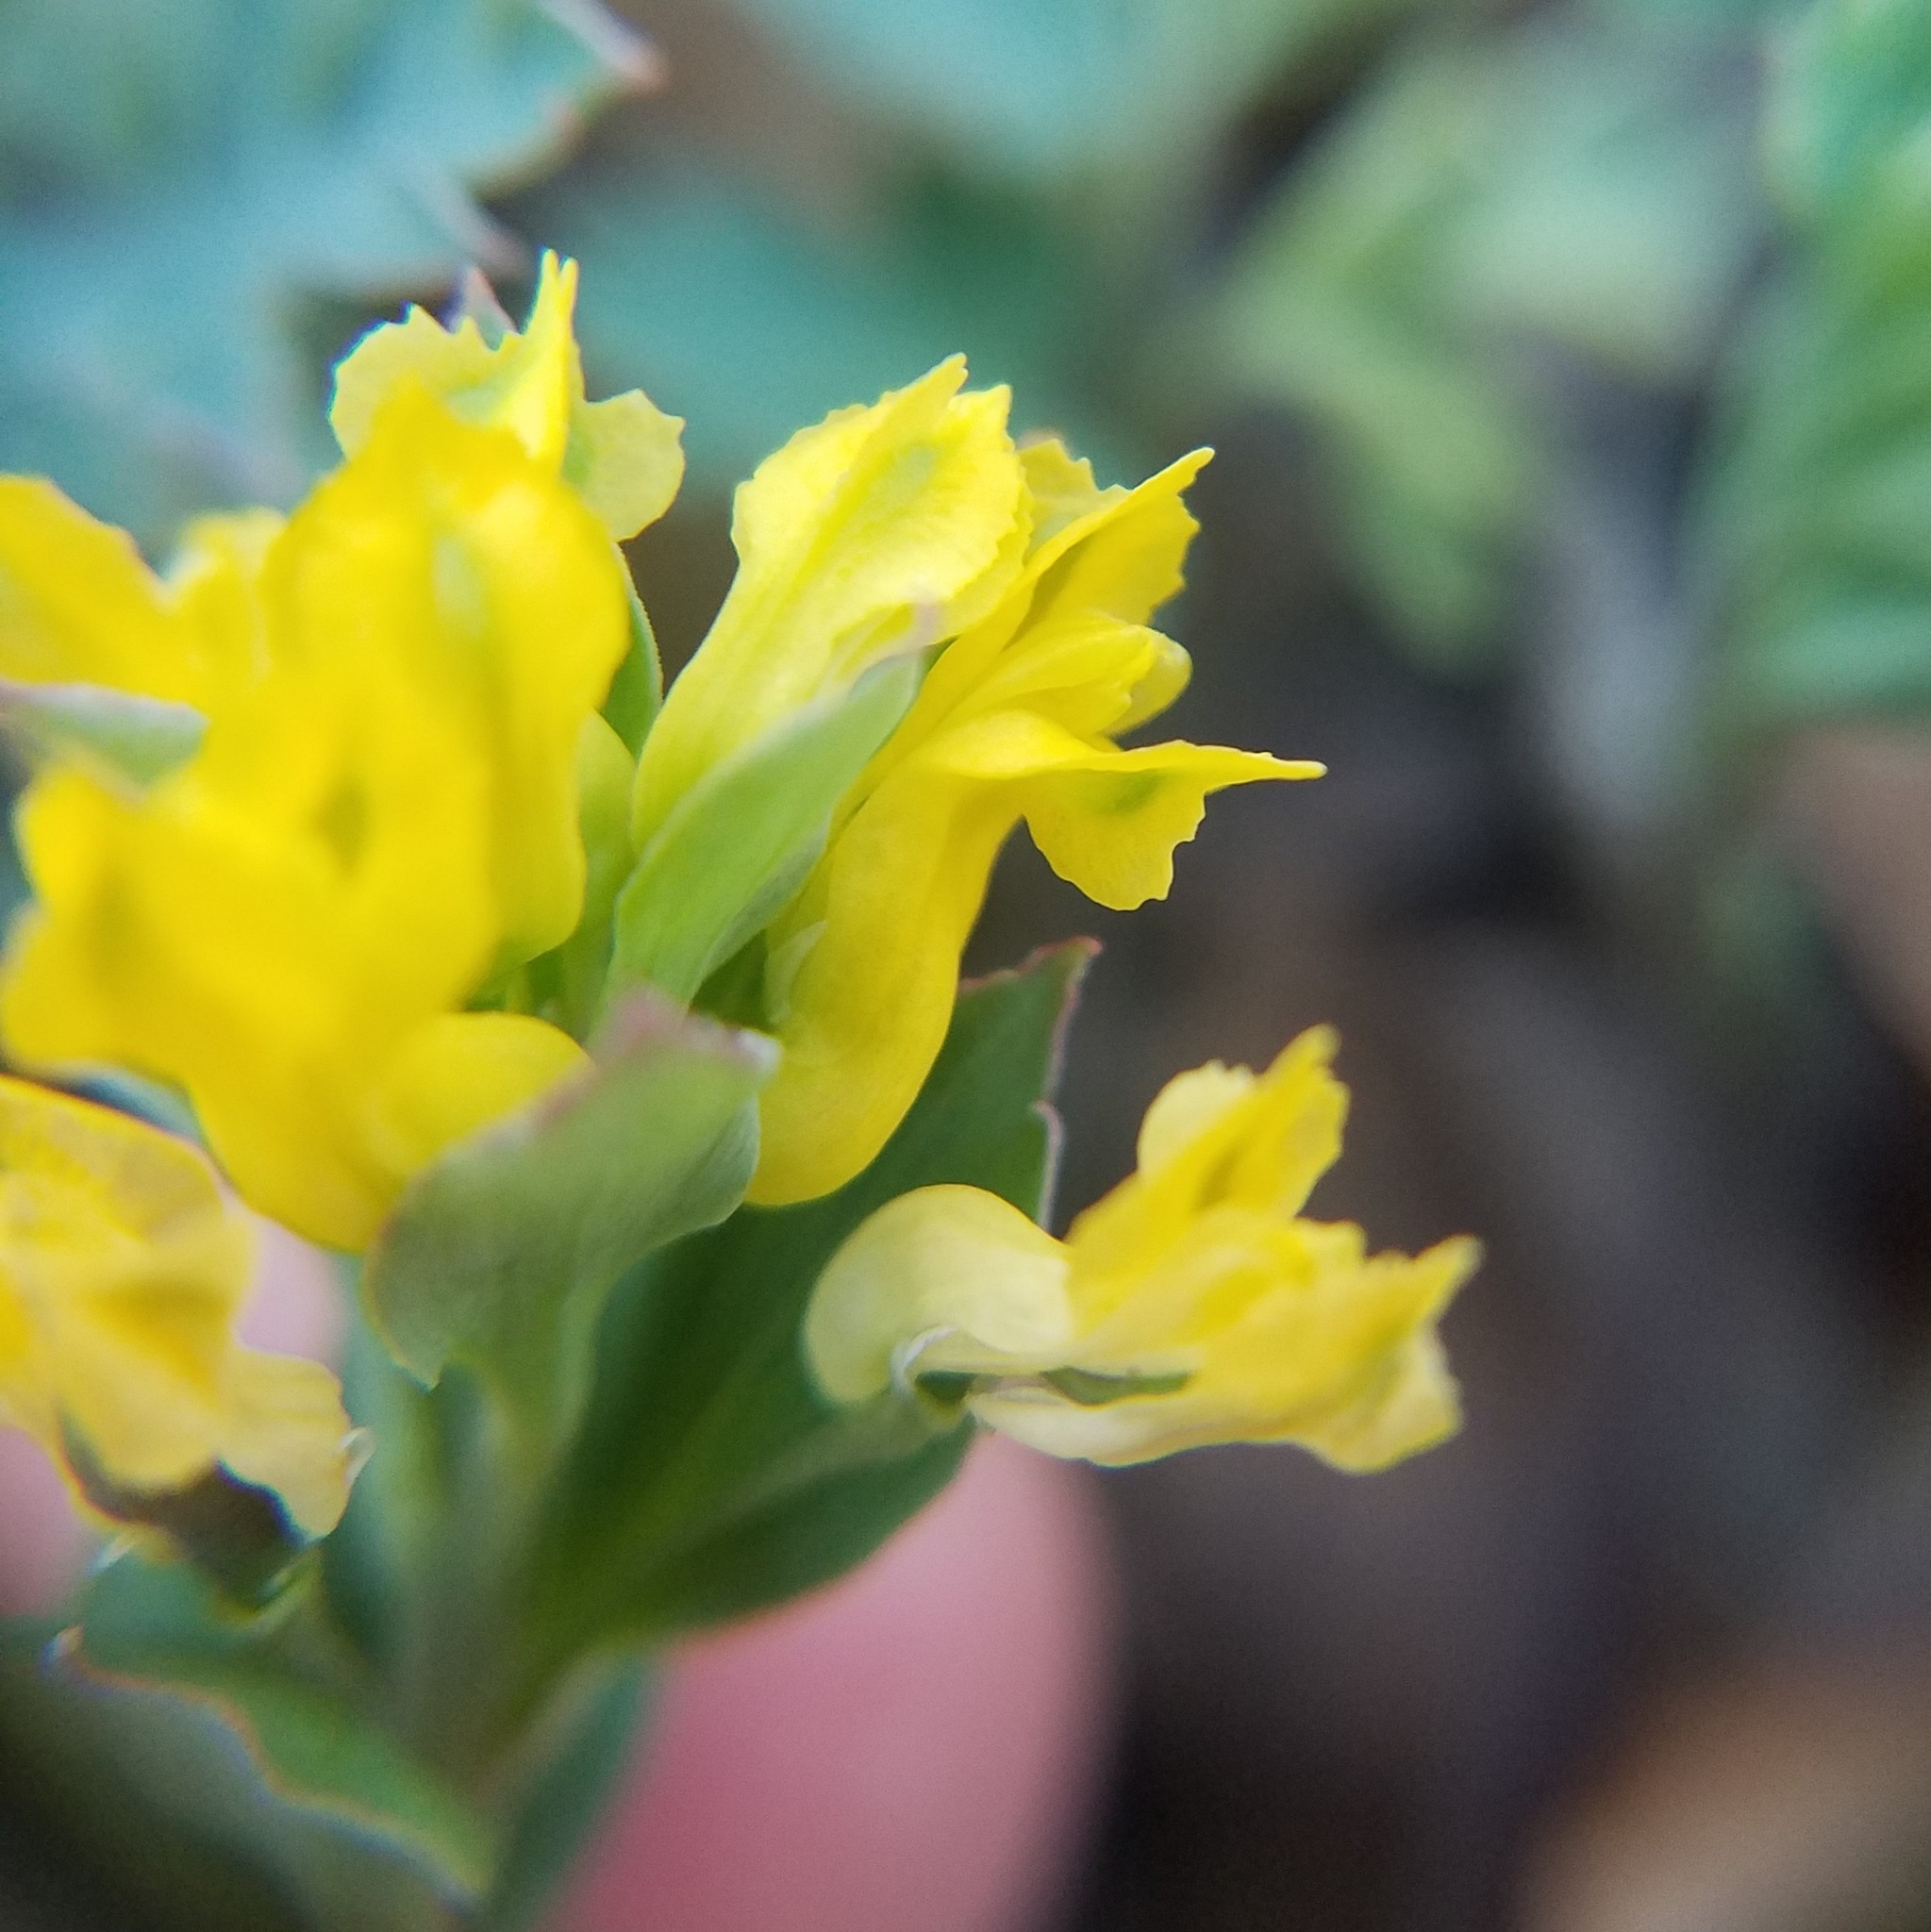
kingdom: Plantae
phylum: Tracheophyta
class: Magnoliopsida
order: Ranunculales
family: Papaveraceae
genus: Corydalis
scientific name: Corydalis flavula
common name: Yellow corydalis
